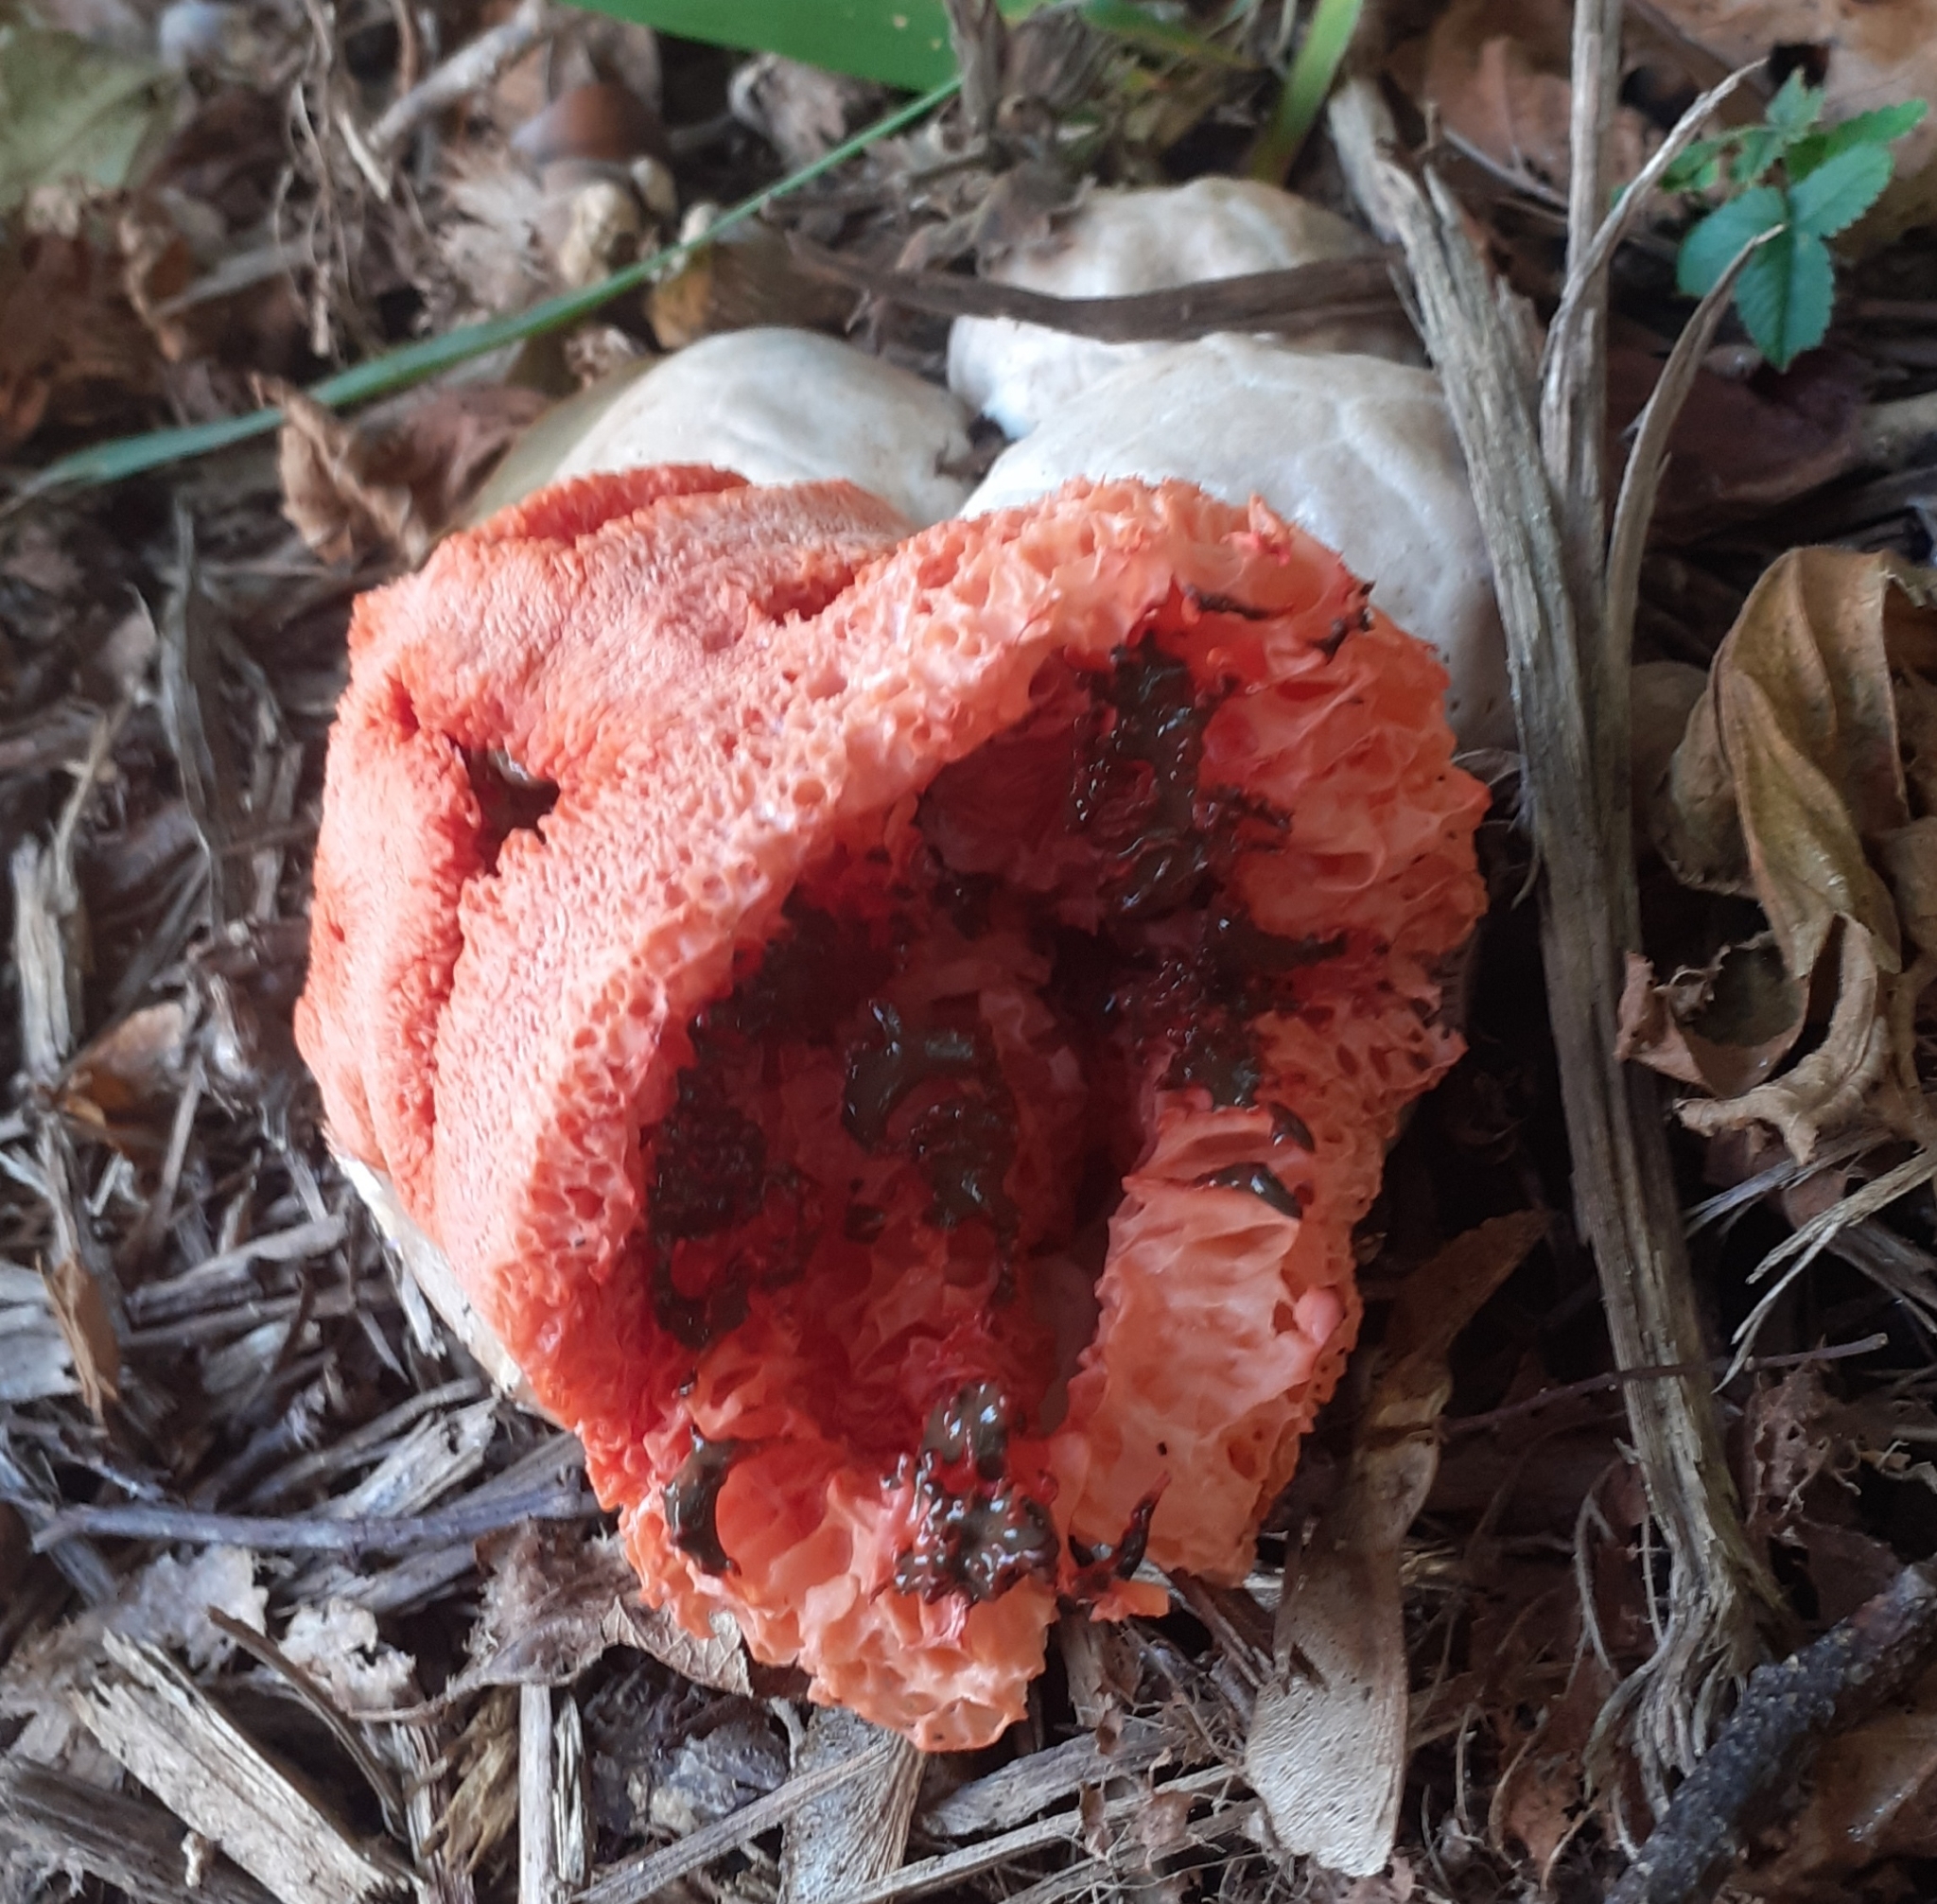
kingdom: Fungi
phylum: Basidiomycota
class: Agaricomycetes
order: Phallales
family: Phallaceae
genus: Clathrus
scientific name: Clathrus ruber
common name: Red cage
